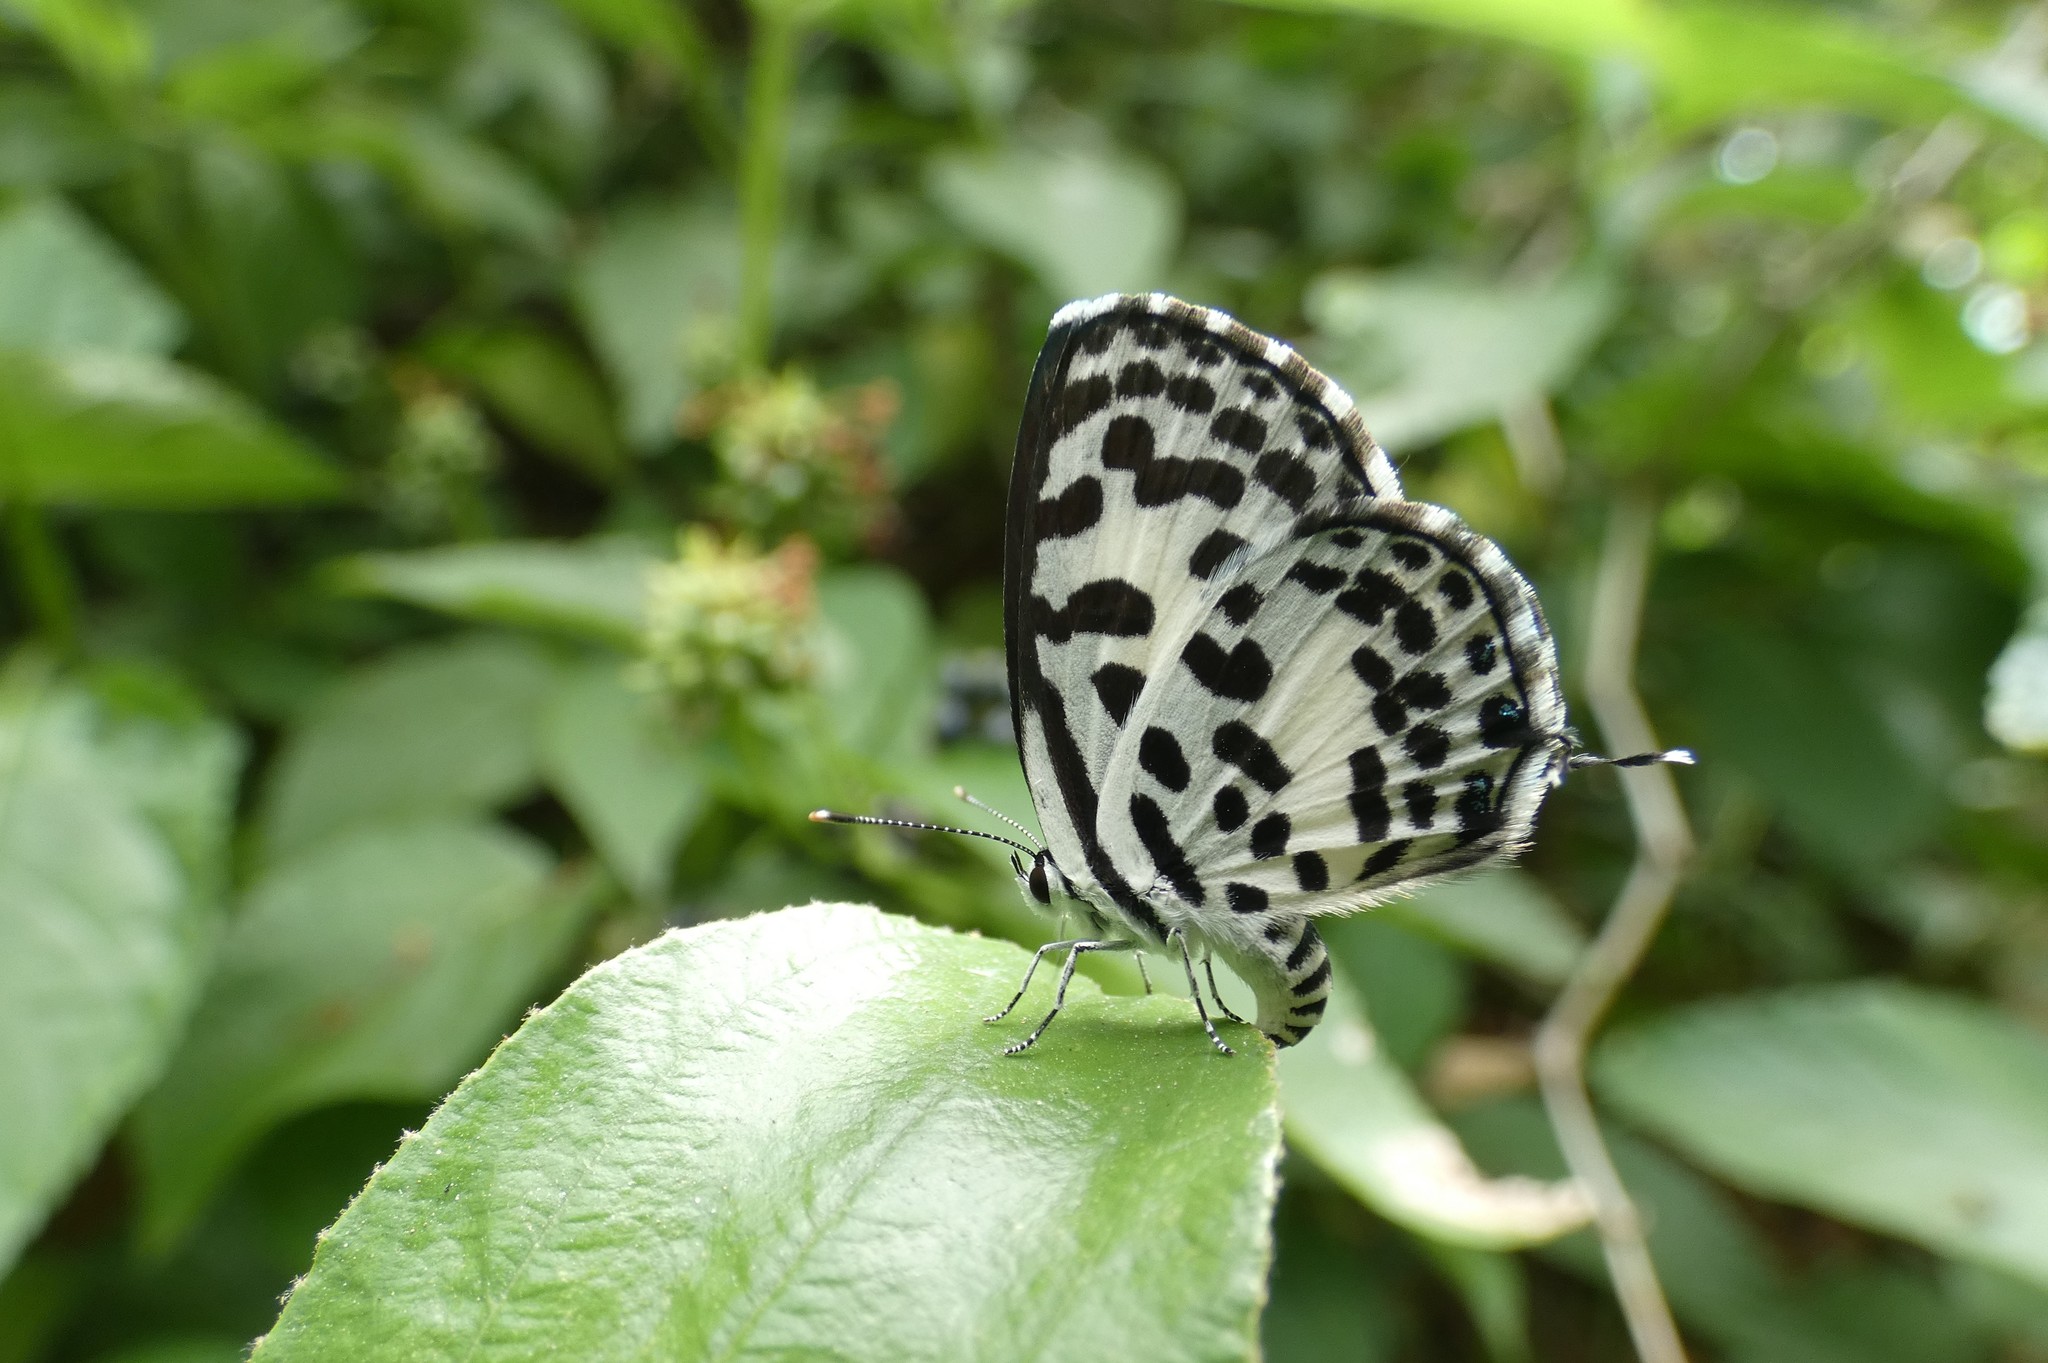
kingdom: Animalia
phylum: Arthropoda
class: Insecta
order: Lepidoptera
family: Lycaenidae
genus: Castalius
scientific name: Castalius rosimon
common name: Common pierrot
